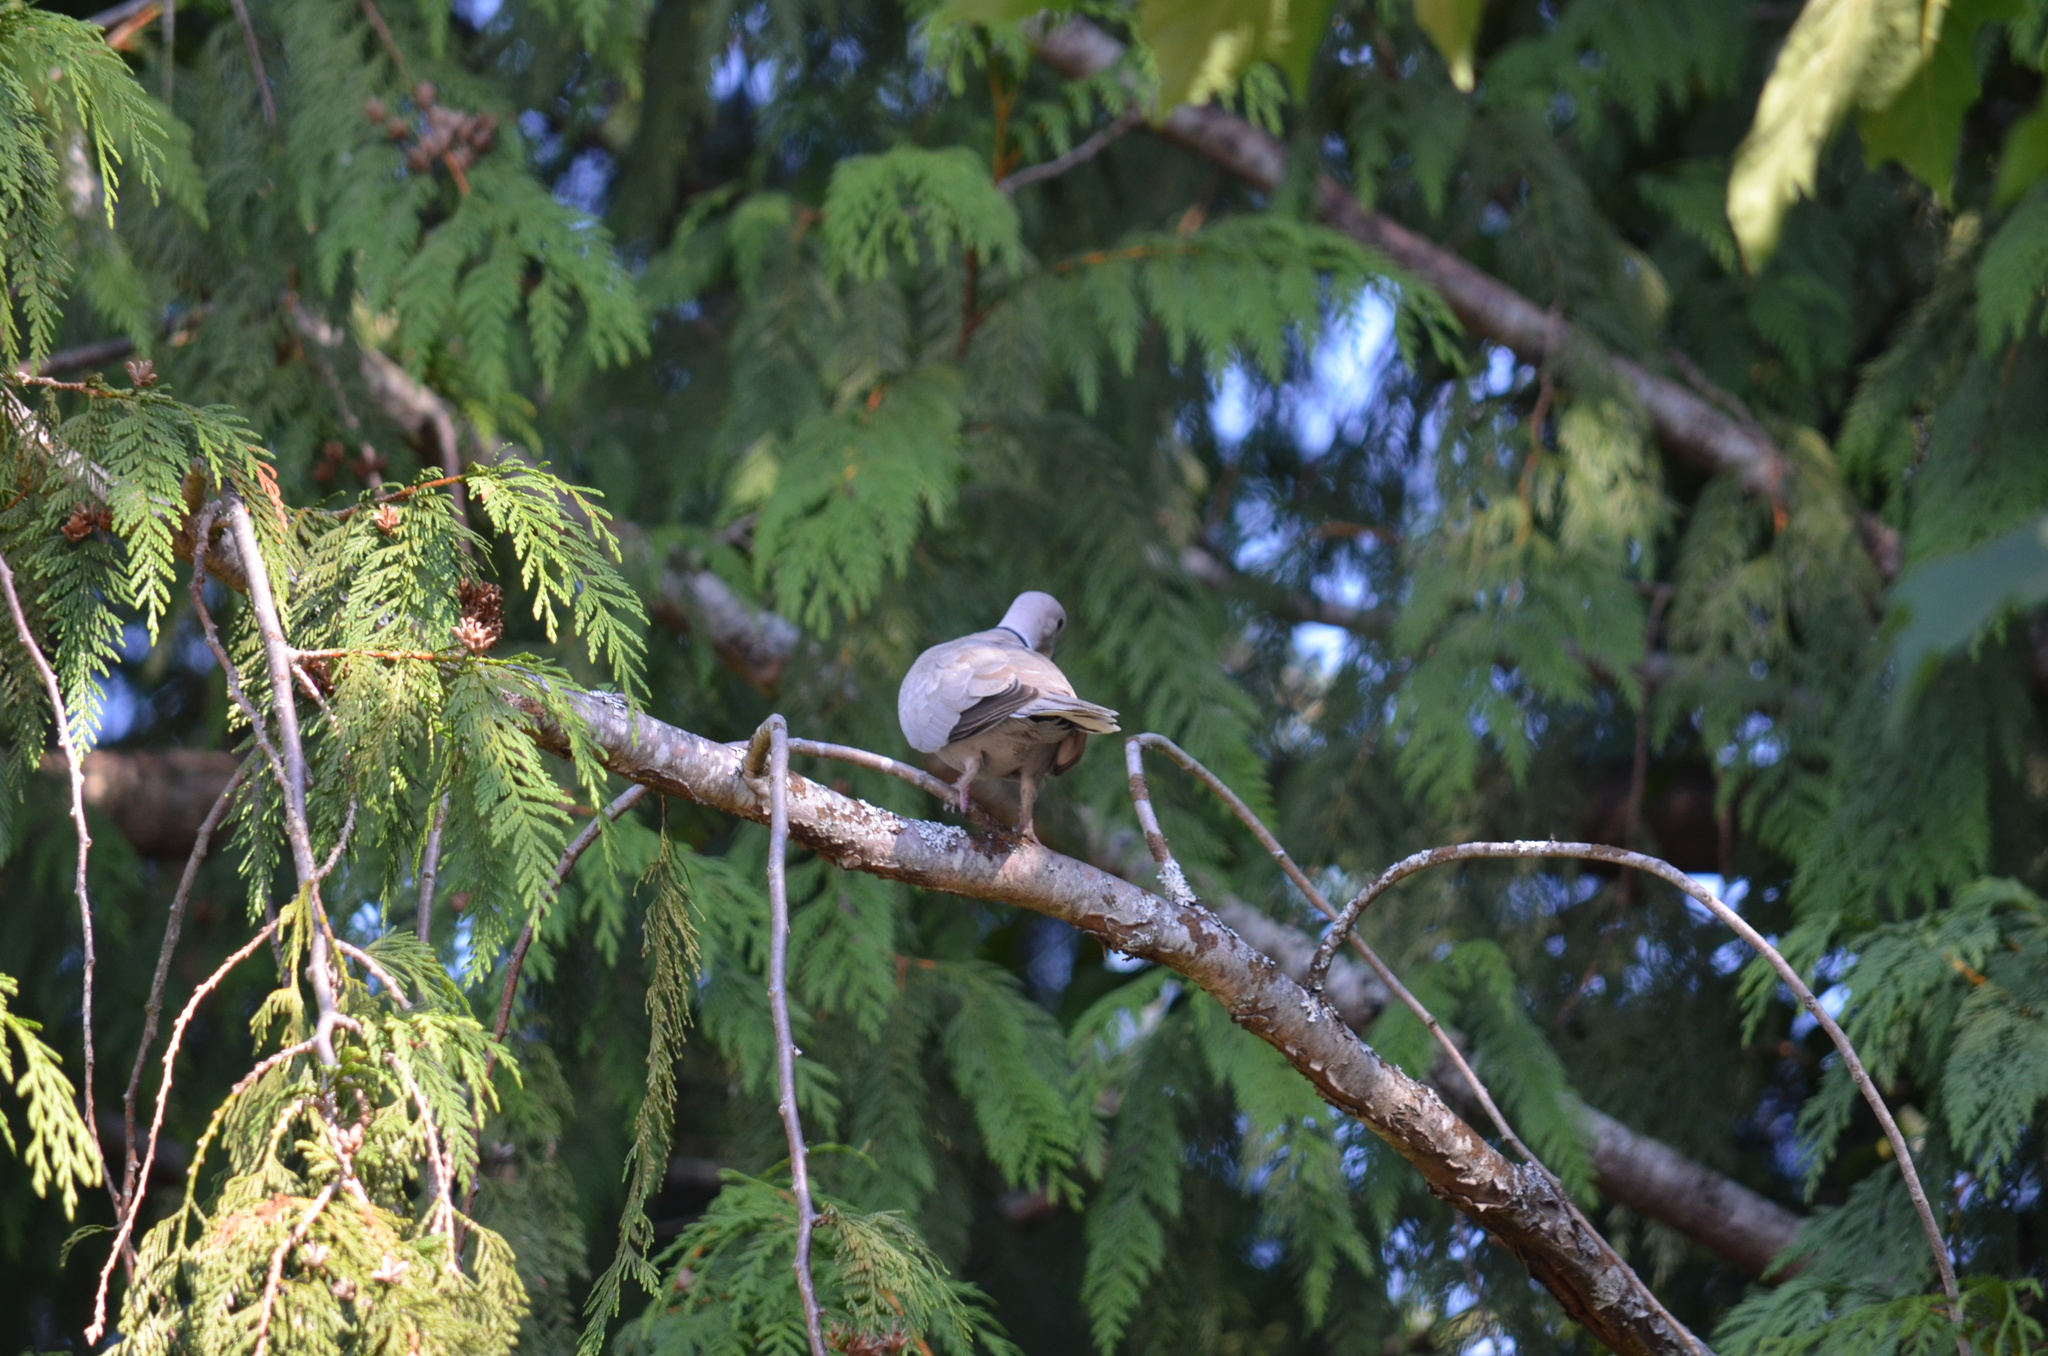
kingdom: Animalia
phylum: Chordata
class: Aves
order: Columbiformes
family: Columbidae
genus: Streptopelia
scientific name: Streptopelia decaocto
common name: Eurasian collared dove
